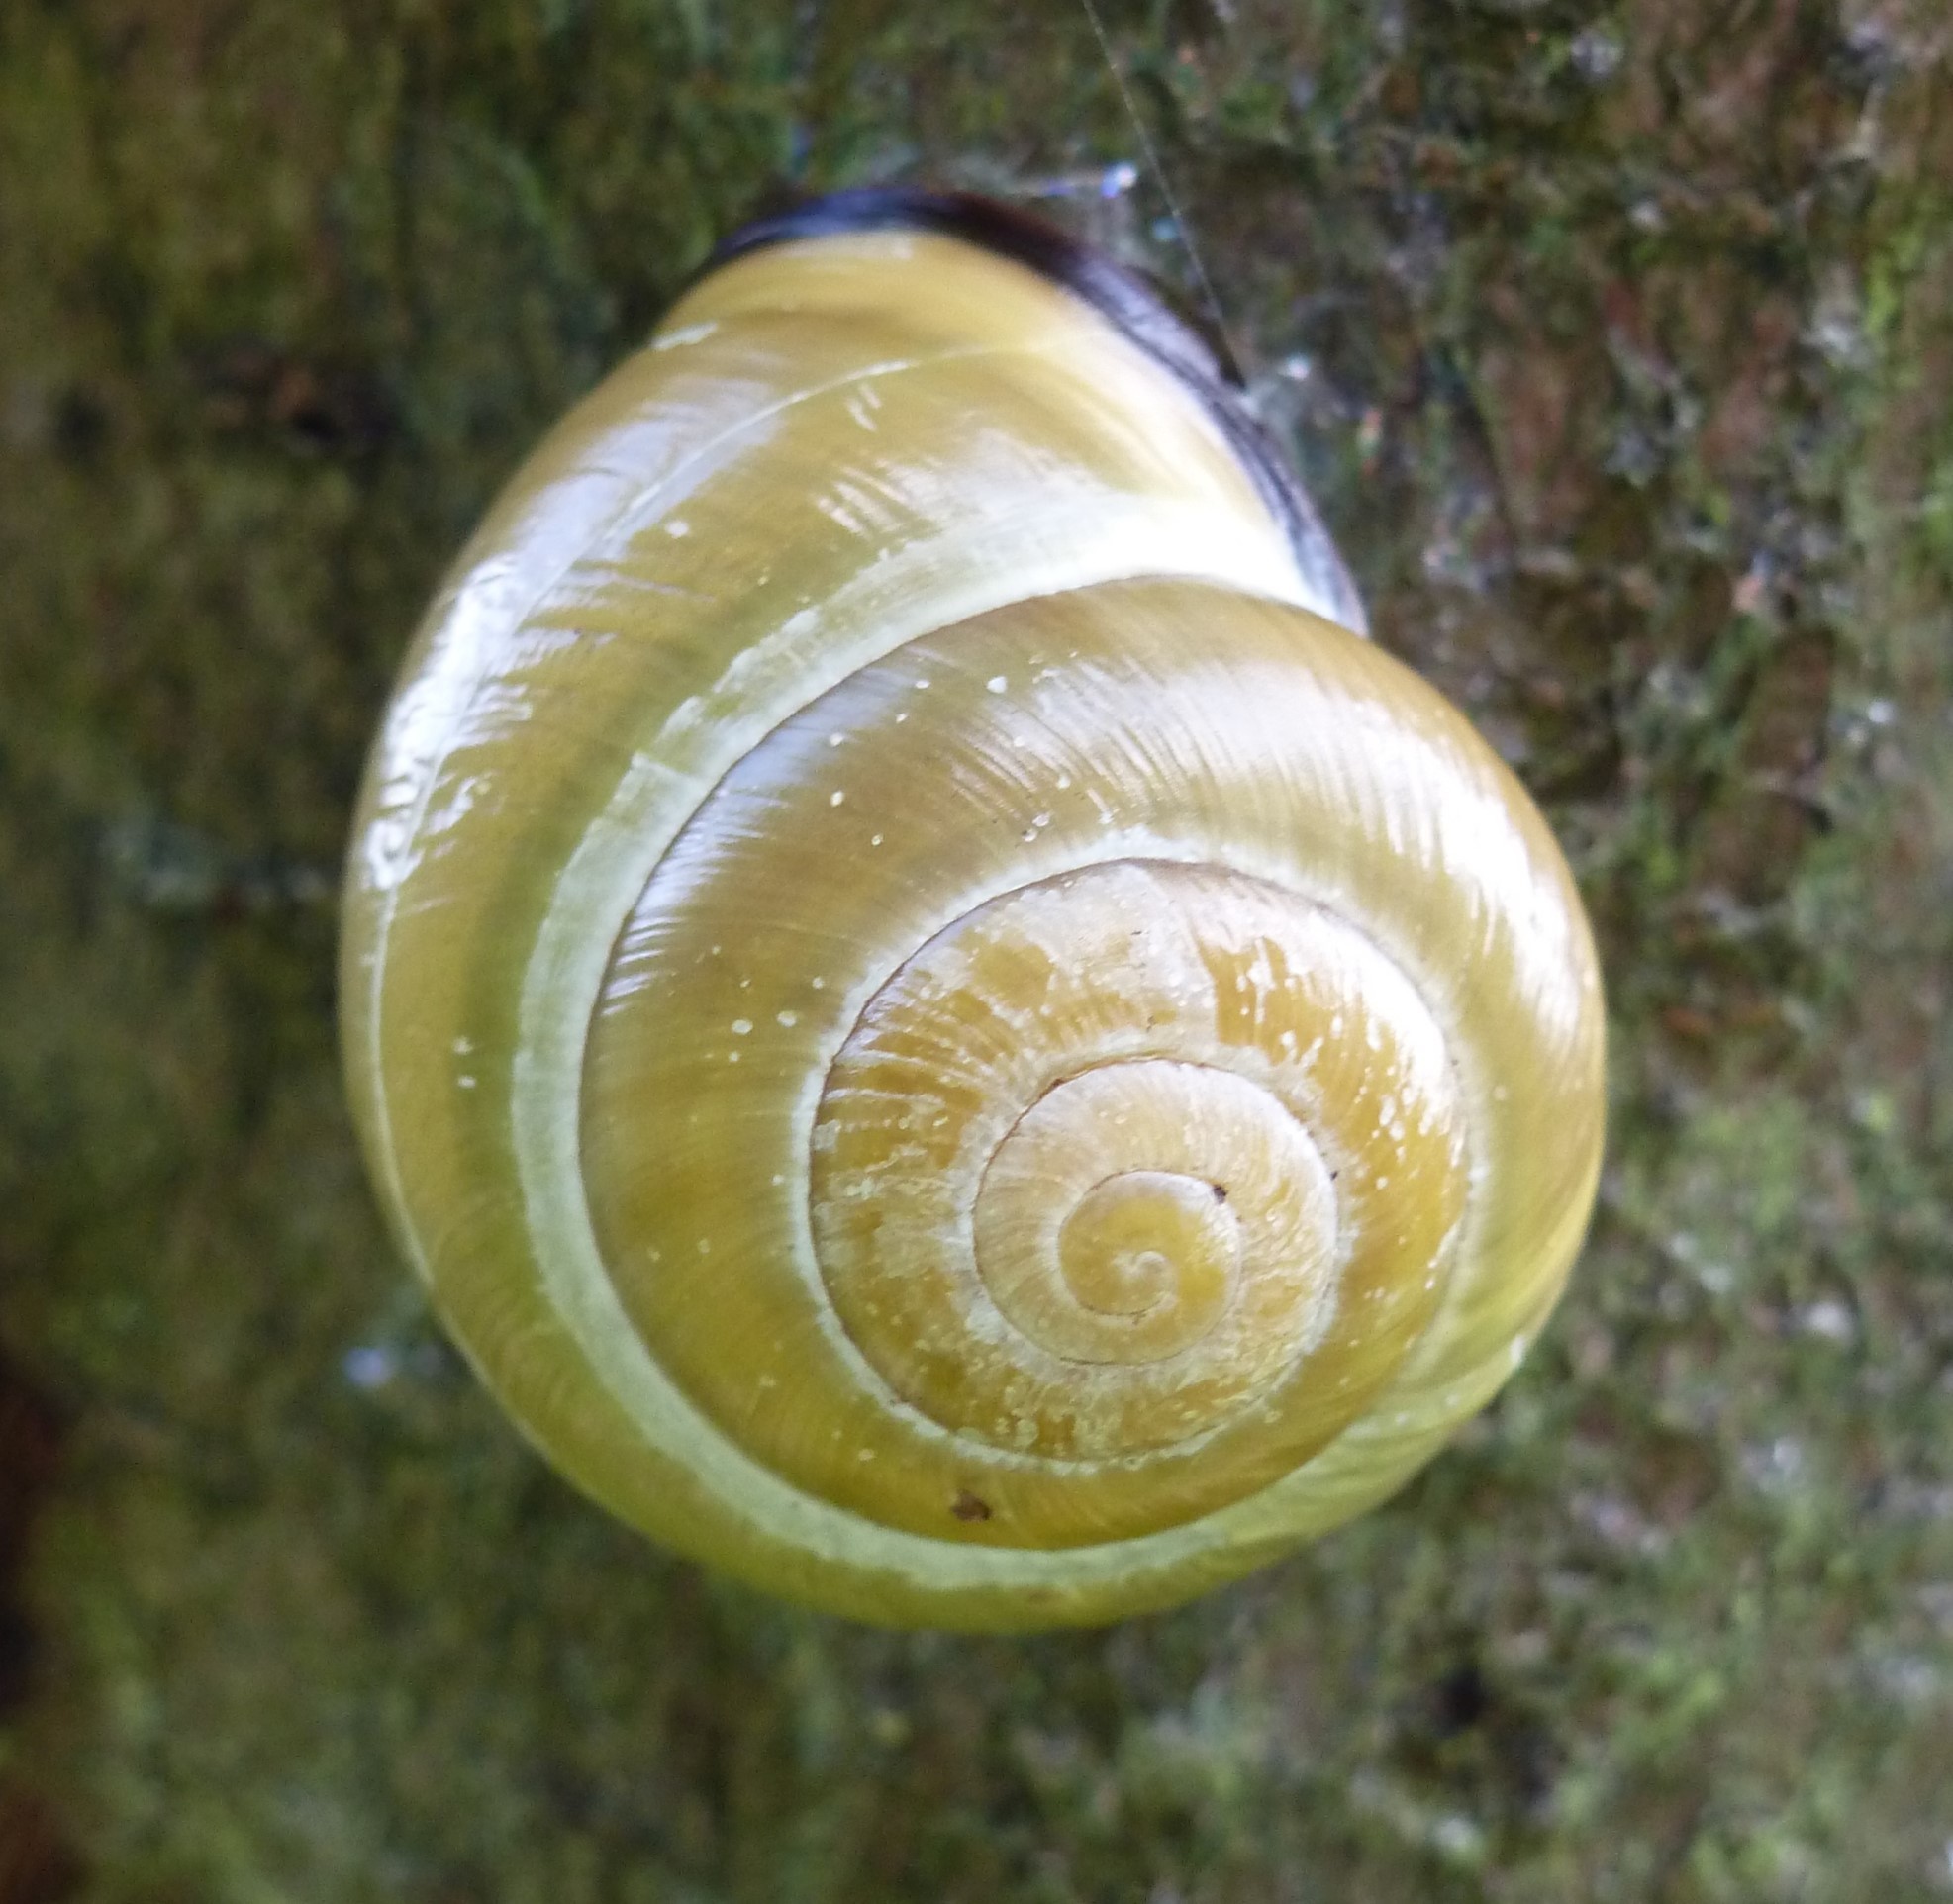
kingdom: Animalia
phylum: Mollusca
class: Gastropoda
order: Stylommatophora
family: Helicidae
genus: Cepaea
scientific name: Cepaea nemoralis
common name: Grovesnail
